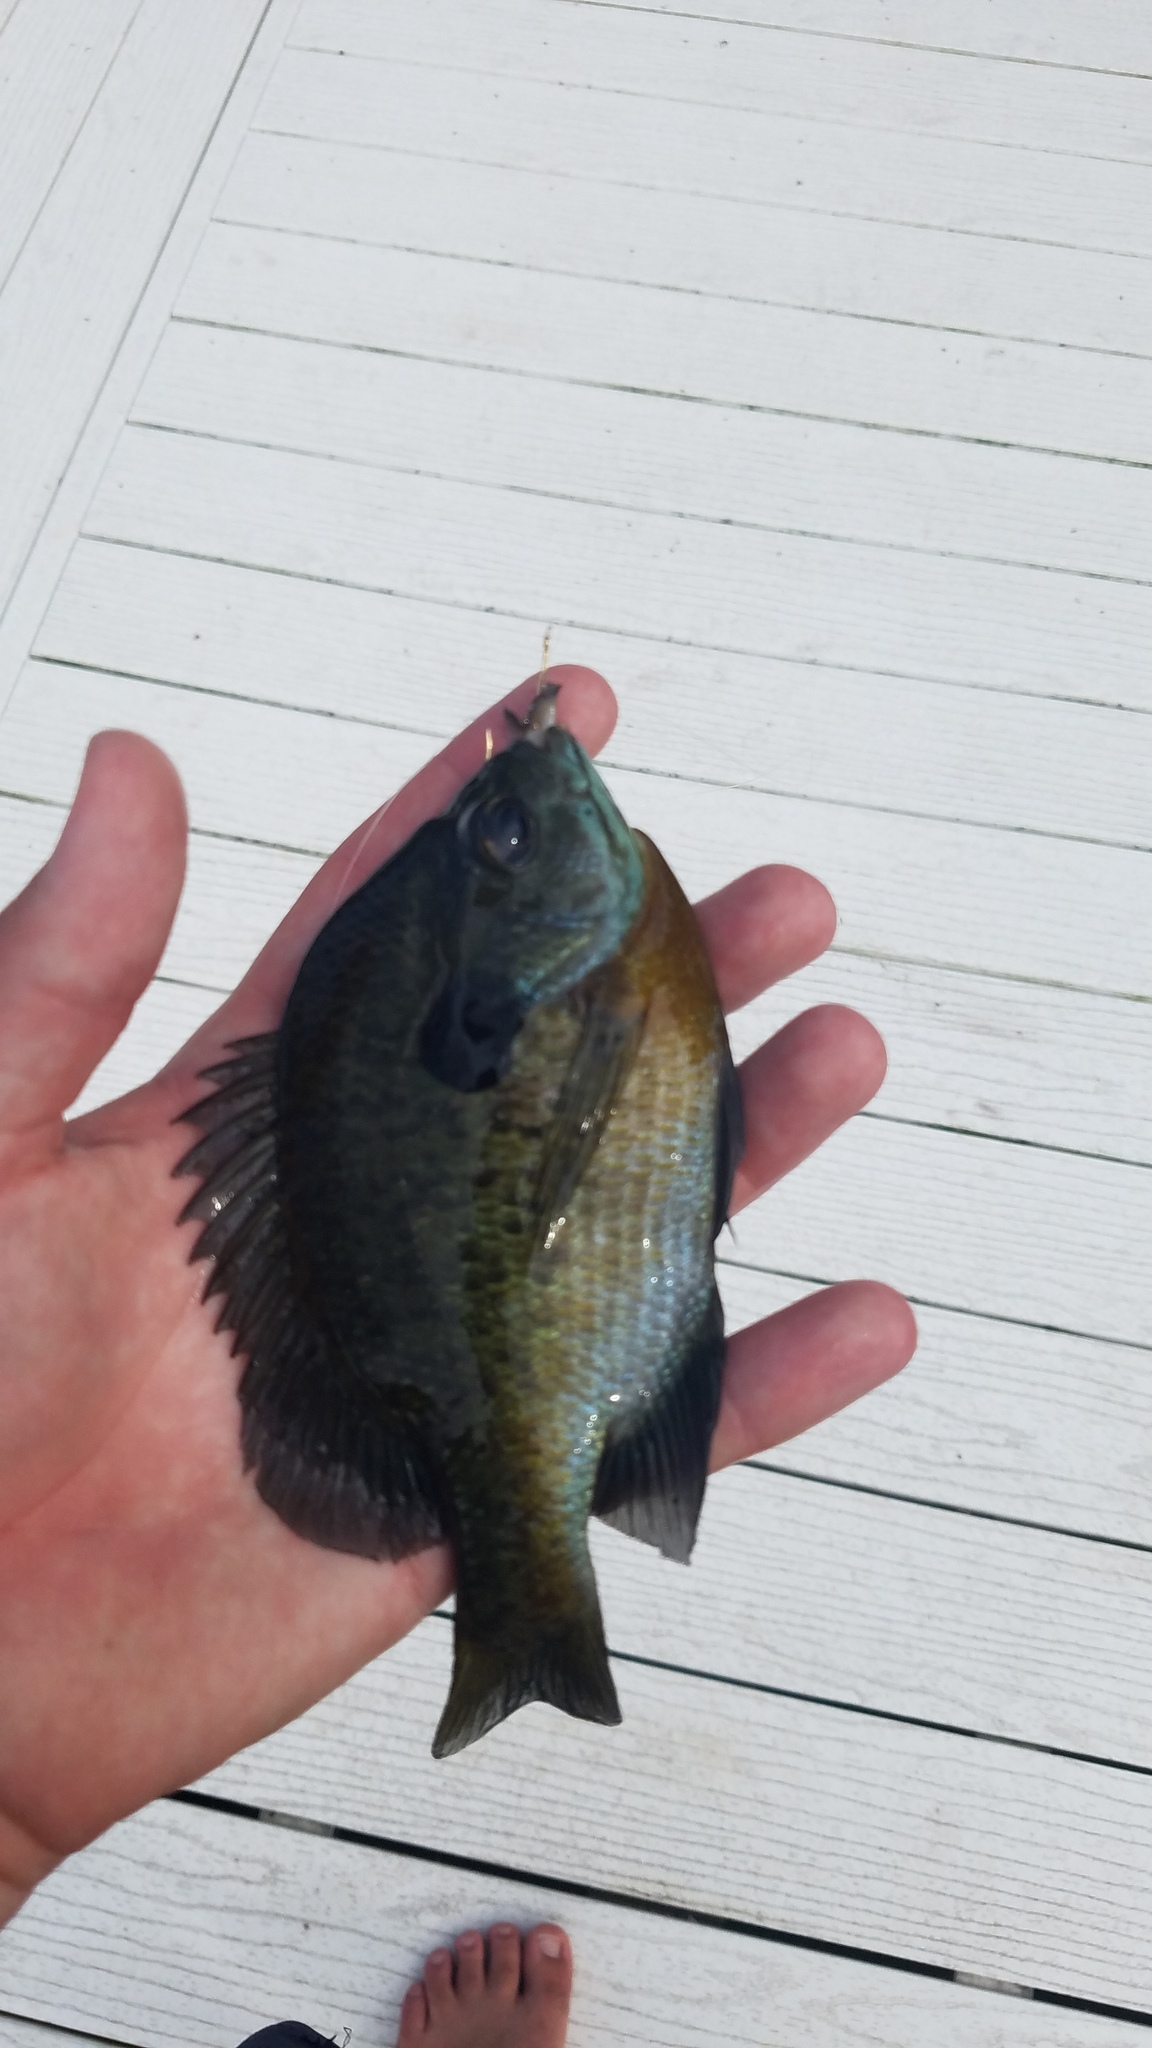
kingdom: Animalia
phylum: Chordata
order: Perciformes
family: Centrarchidae
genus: Lepomis
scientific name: Lepomis macrochirus
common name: Bluegill
